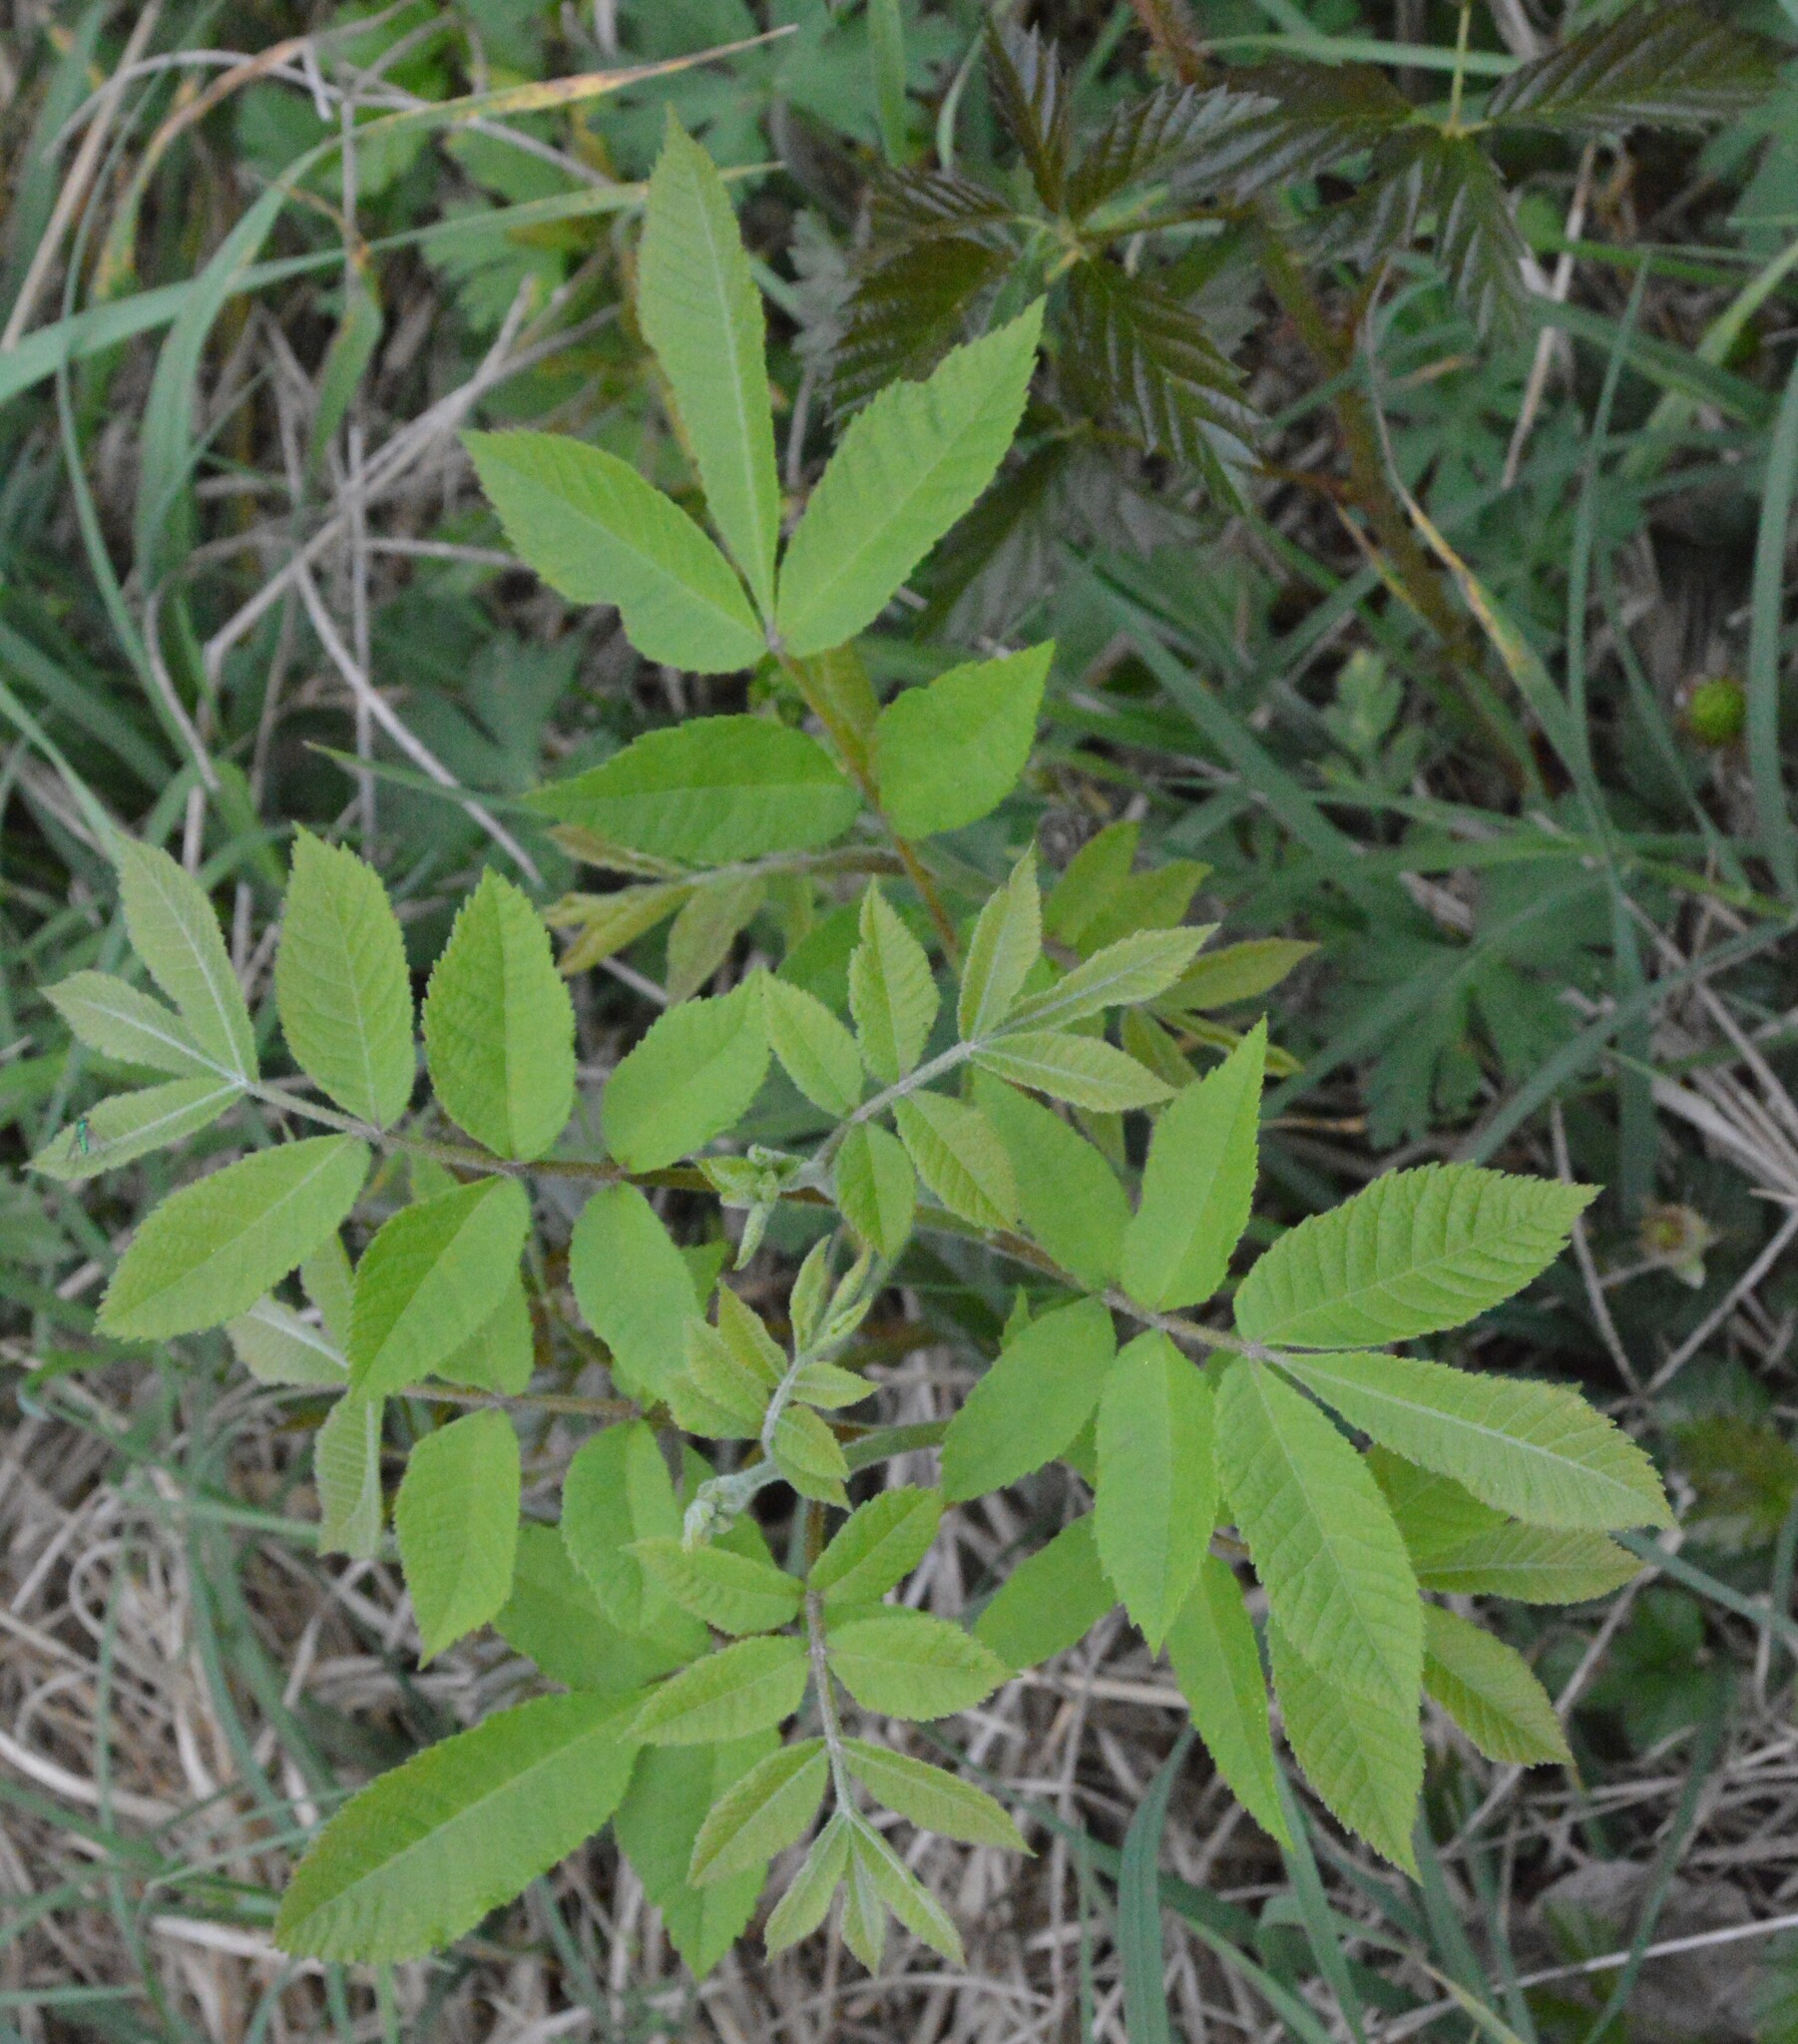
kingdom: Plantae
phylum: Tracheophyta
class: Magnoliopsida
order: Fagales
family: Juglandaceae
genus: Carya
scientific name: Carya illinoinensis
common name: Pecan
